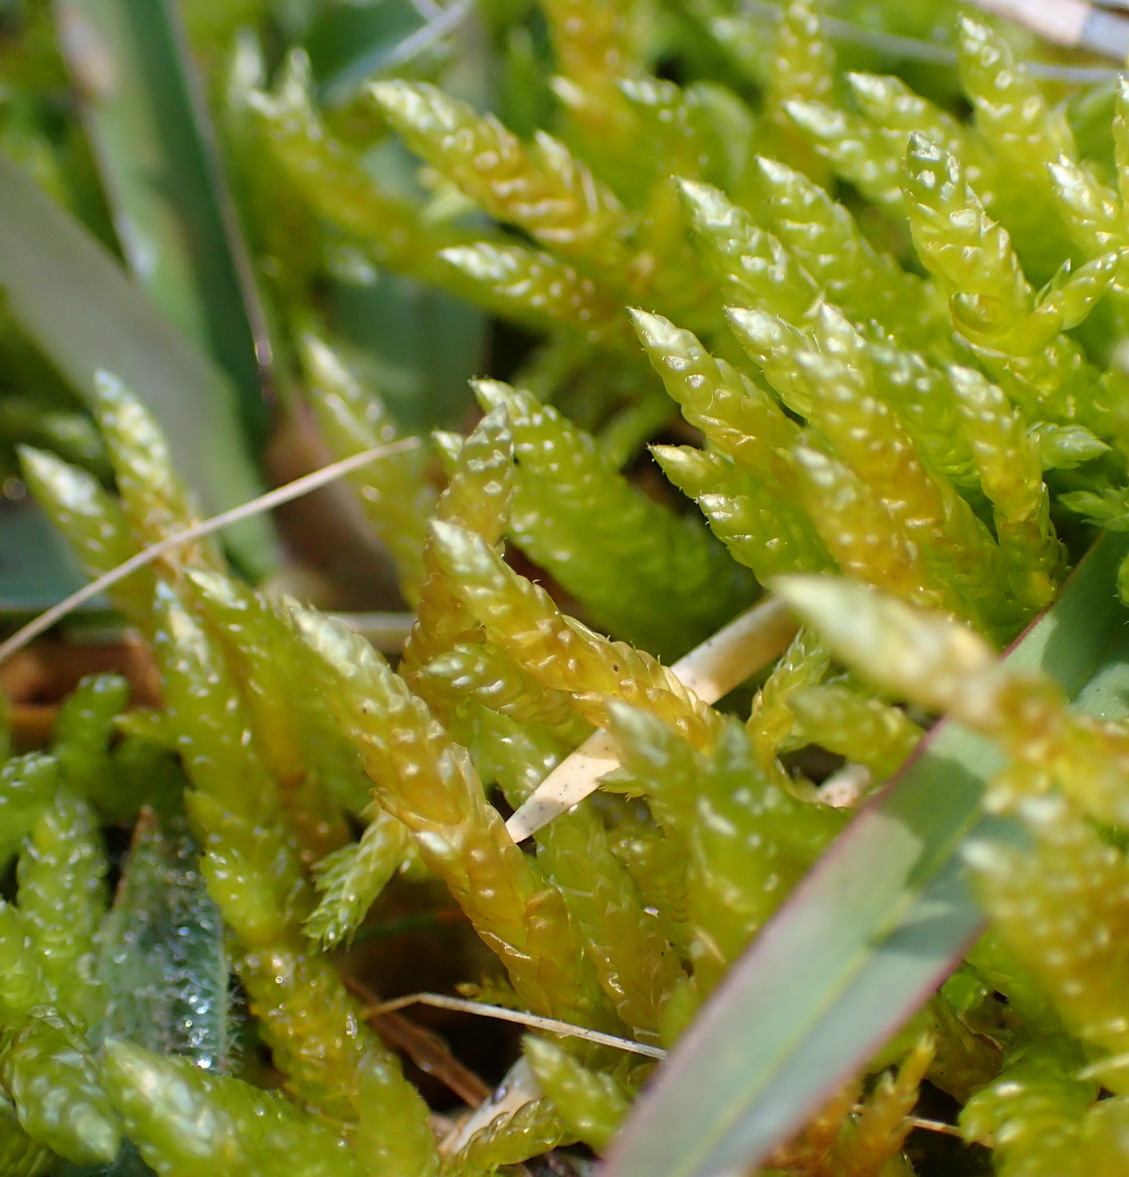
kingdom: Plantae
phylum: Bryophyta
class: Bryopsida
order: Hypnales
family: Brachytheciaceae
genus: Pseudoscleropodium
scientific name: Pseudoscleropodium purum
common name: Neat feather-moss
